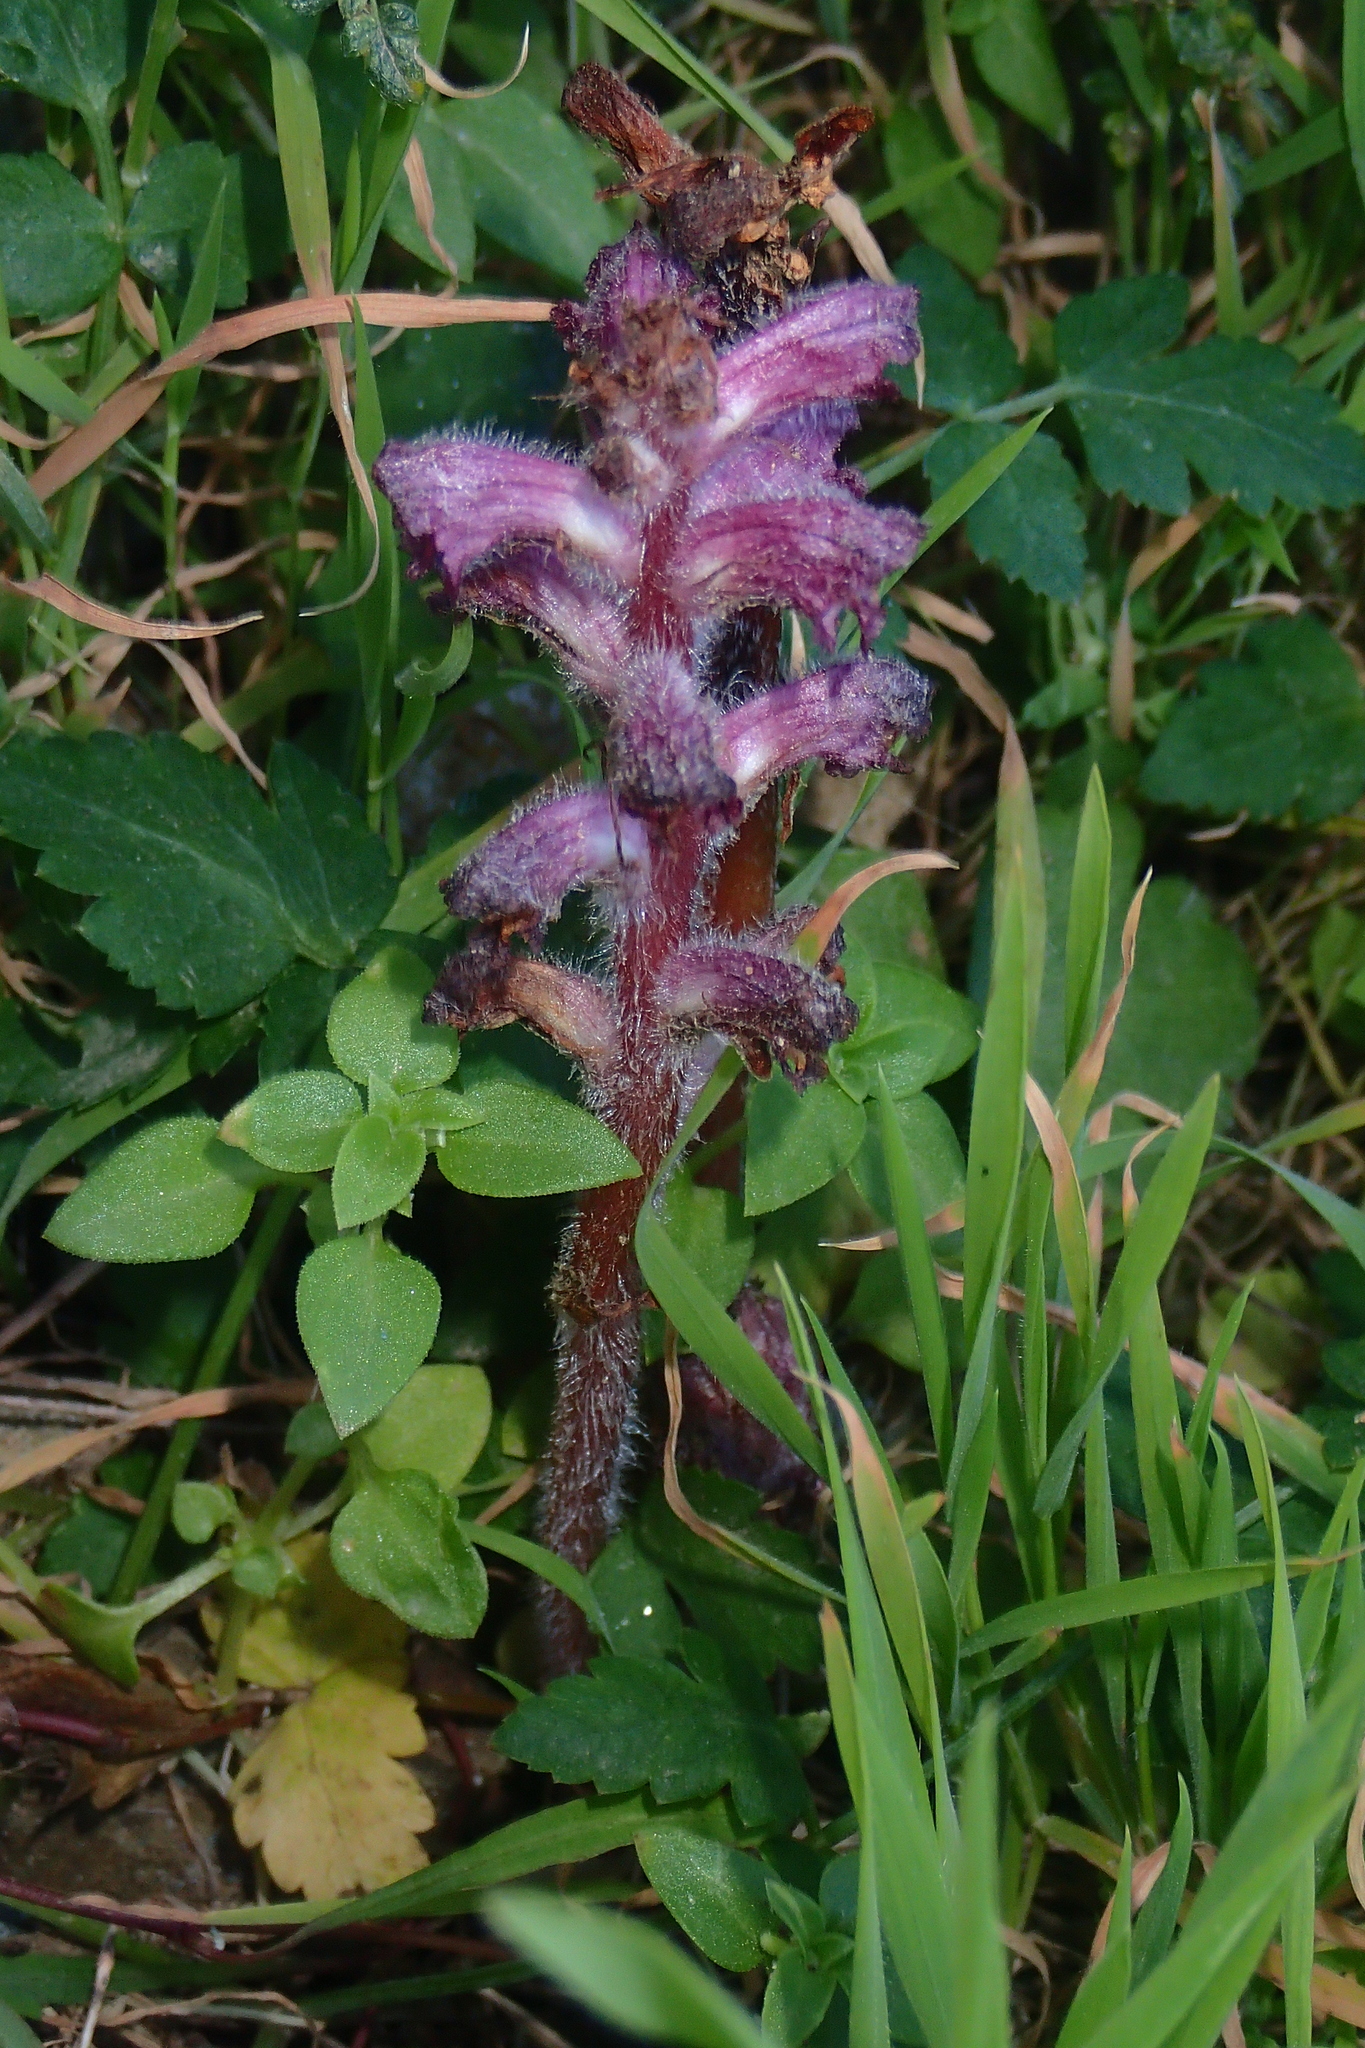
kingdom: Plantae
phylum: Tracheophyta
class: Magnoliopsida
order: Lamiales
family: Orobanchaceae
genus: Orobanche
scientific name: Orobanche pubescens
